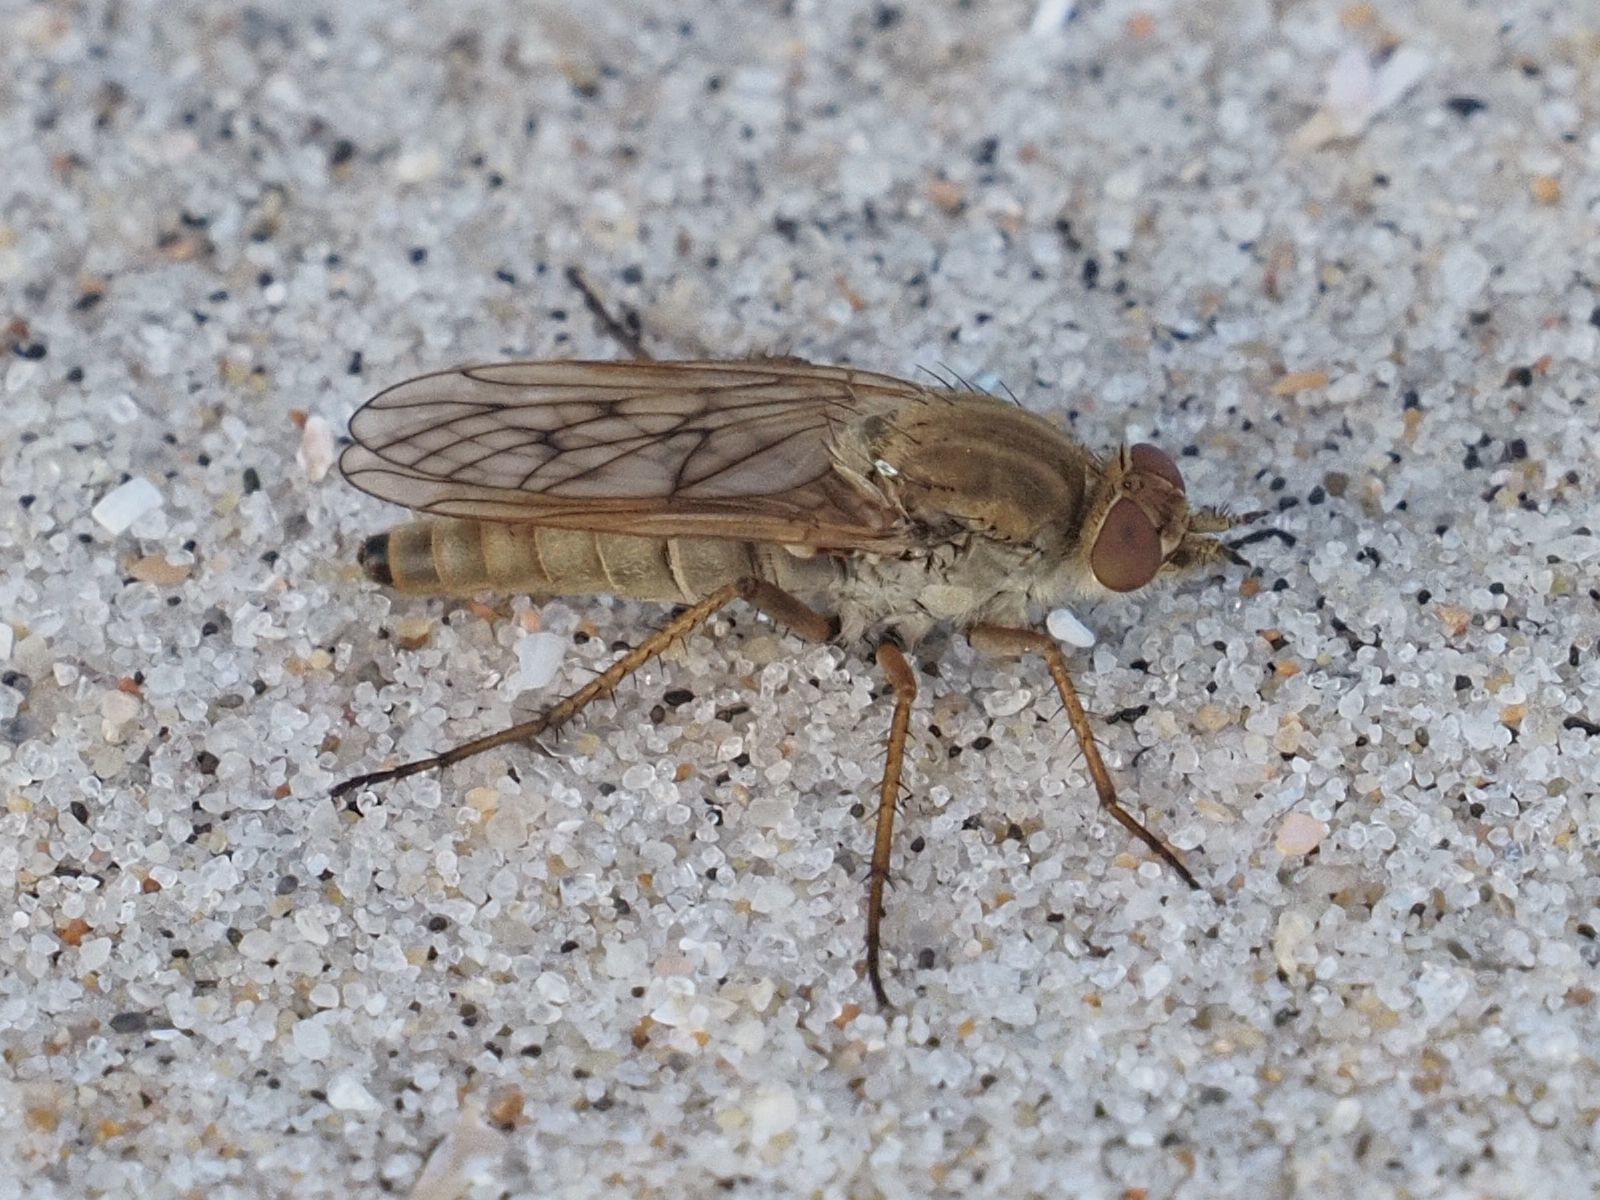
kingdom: Animalia
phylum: Arthropoda
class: Insecta
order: Diptera
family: Therevidae
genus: Dialineura
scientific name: Dialineura anilis
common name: Swollen silver-stiletto
